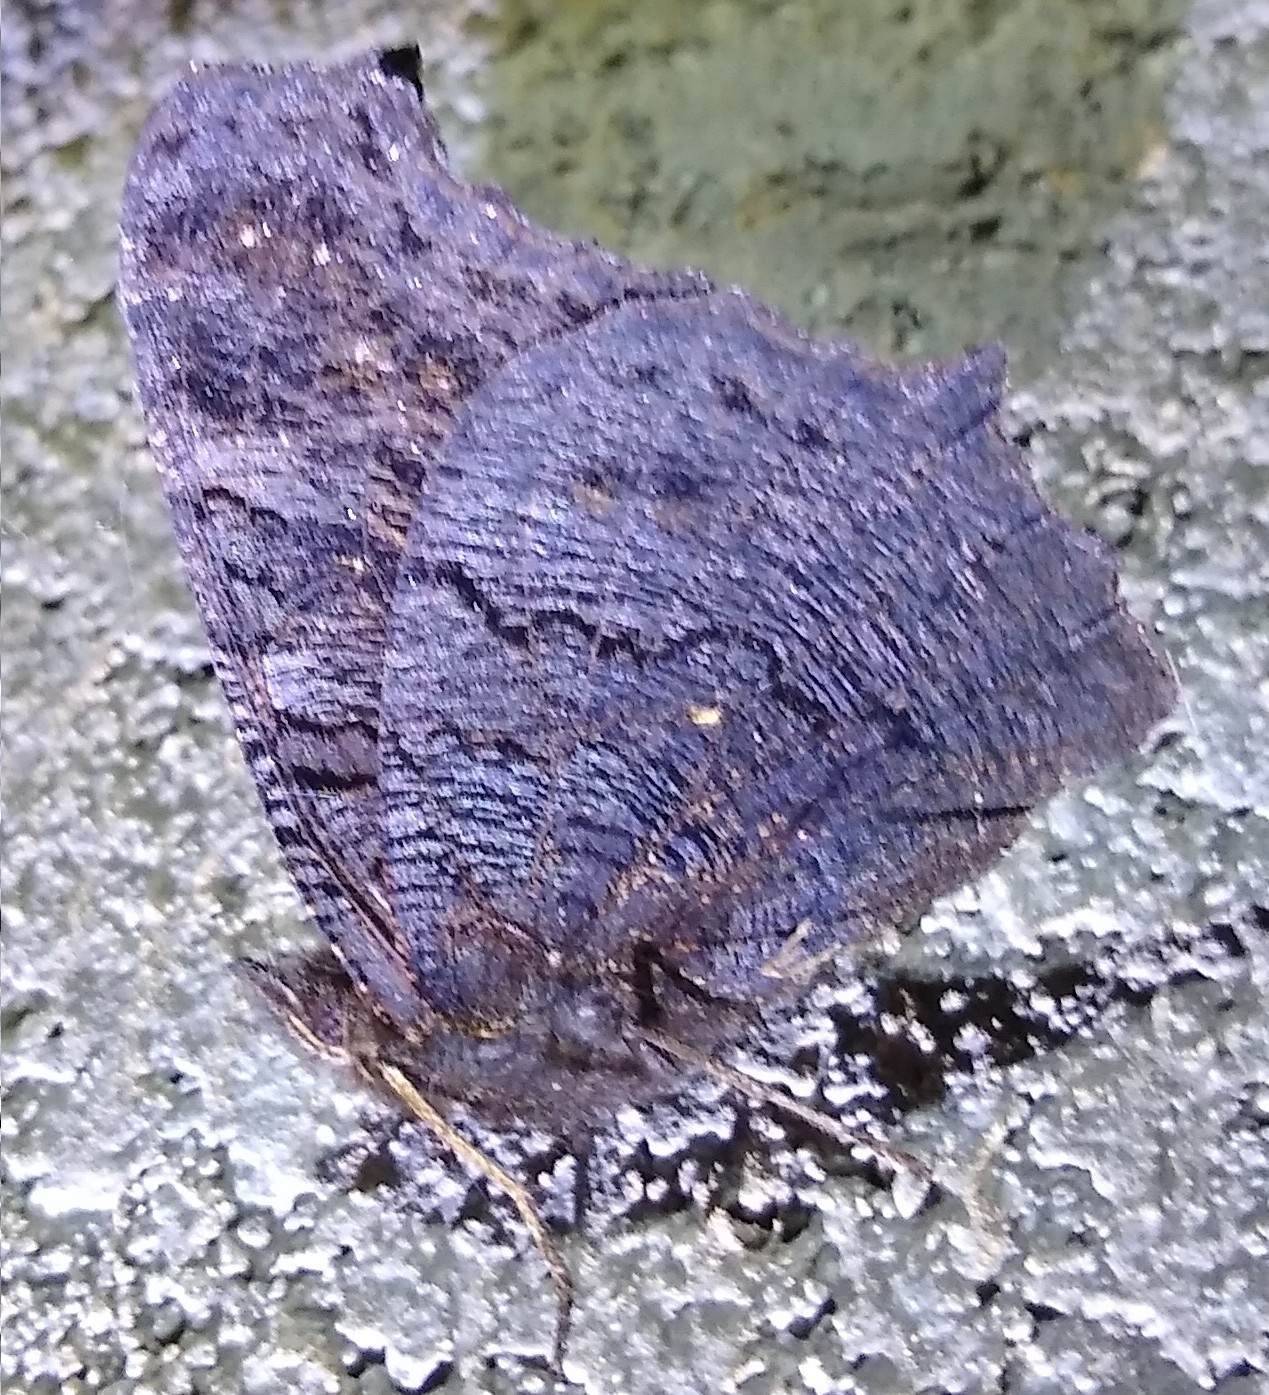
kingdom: Animalia
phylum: Arthropoda
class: Insecta
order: Lepidoptera
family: Nymphalidae
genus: Aglais
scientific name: Aglais io
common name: Peacock
